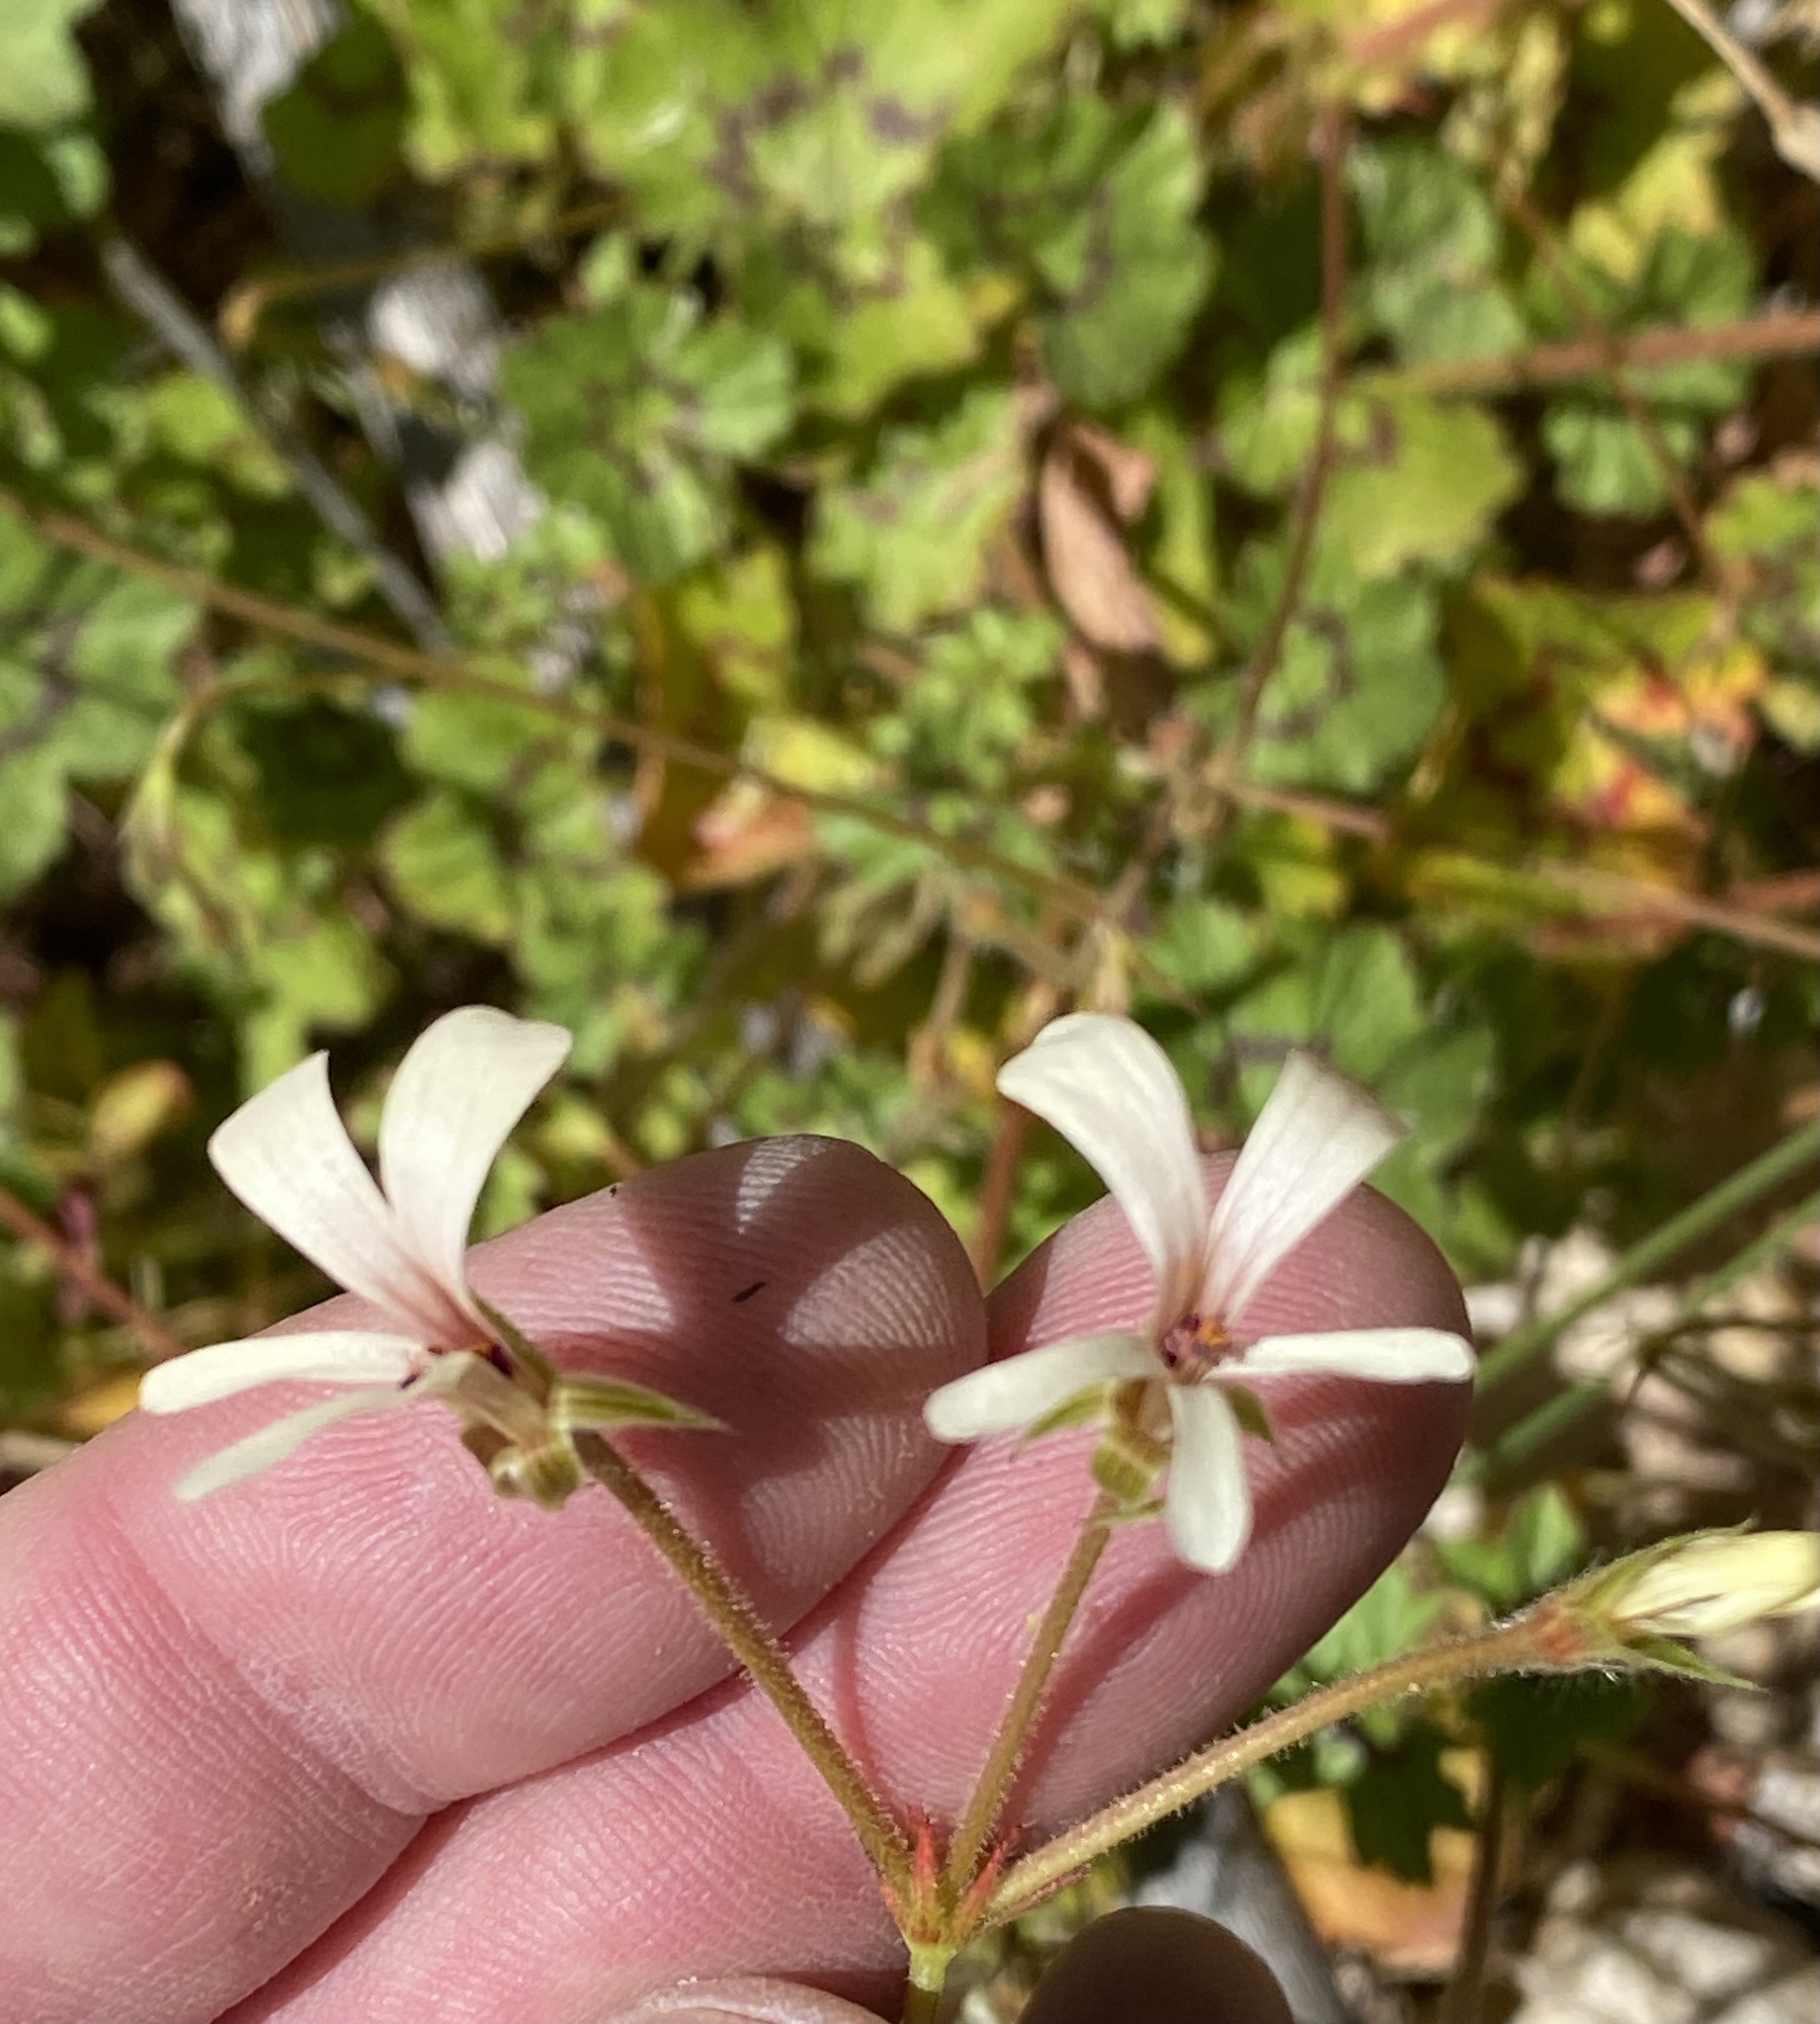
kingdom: Plantae
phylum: Tracheophyta
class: Magnoliopsida
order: Geraniales
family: Geraniaceae
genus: Pelargonium
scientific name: Pelargonium elongatum
